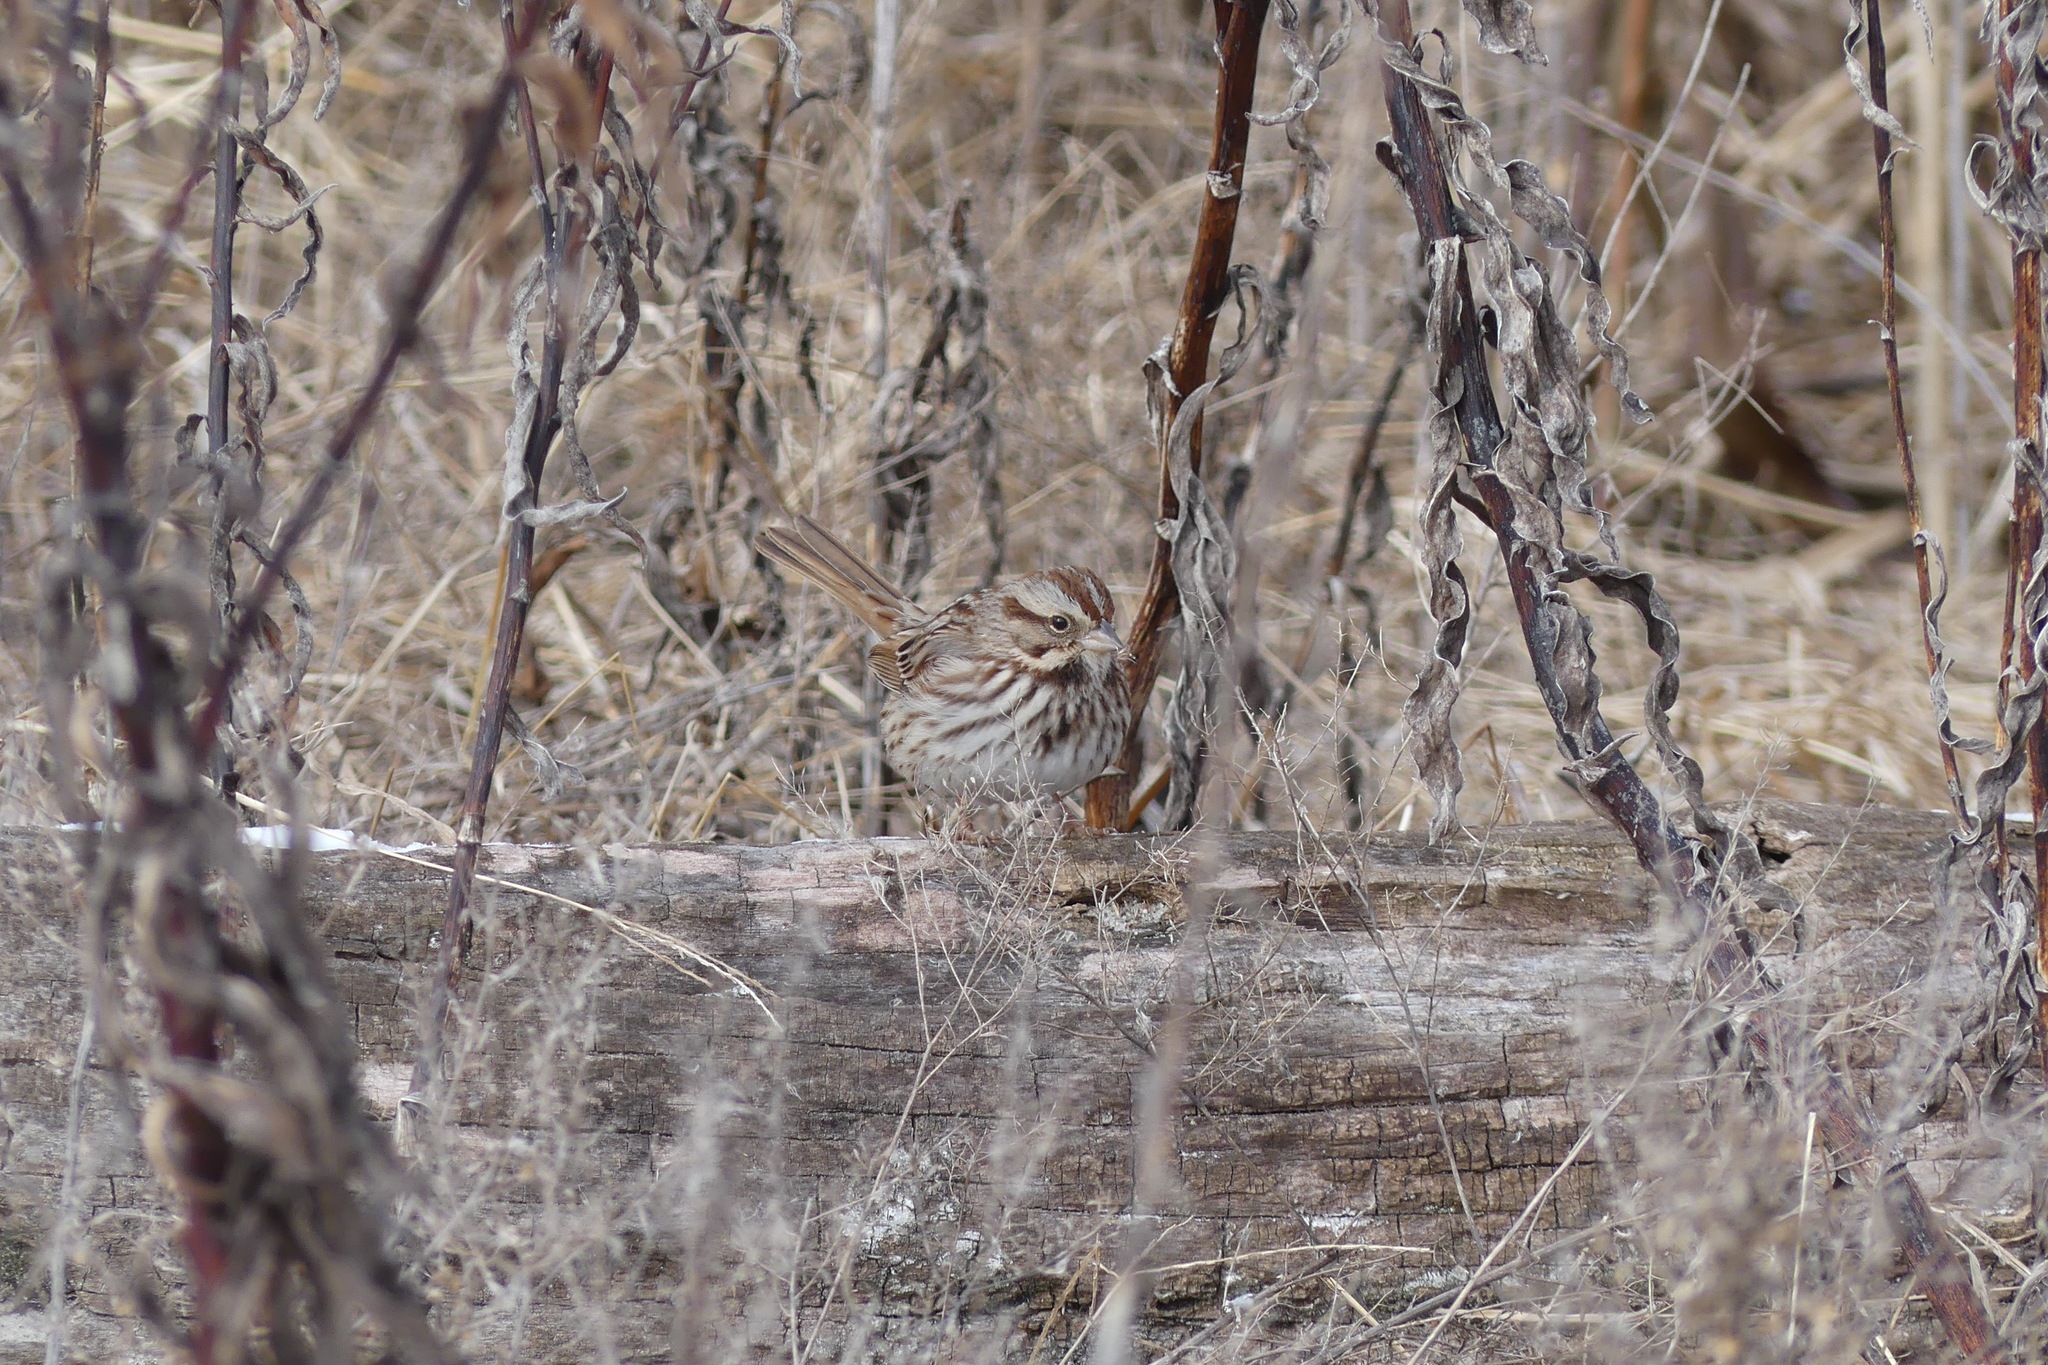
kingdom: Animalia
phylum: Chordata
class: Aves
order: Passeriformes
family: Passerellidae
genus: Melospiza
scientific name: Melospiza melodia
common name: Song sparrow
